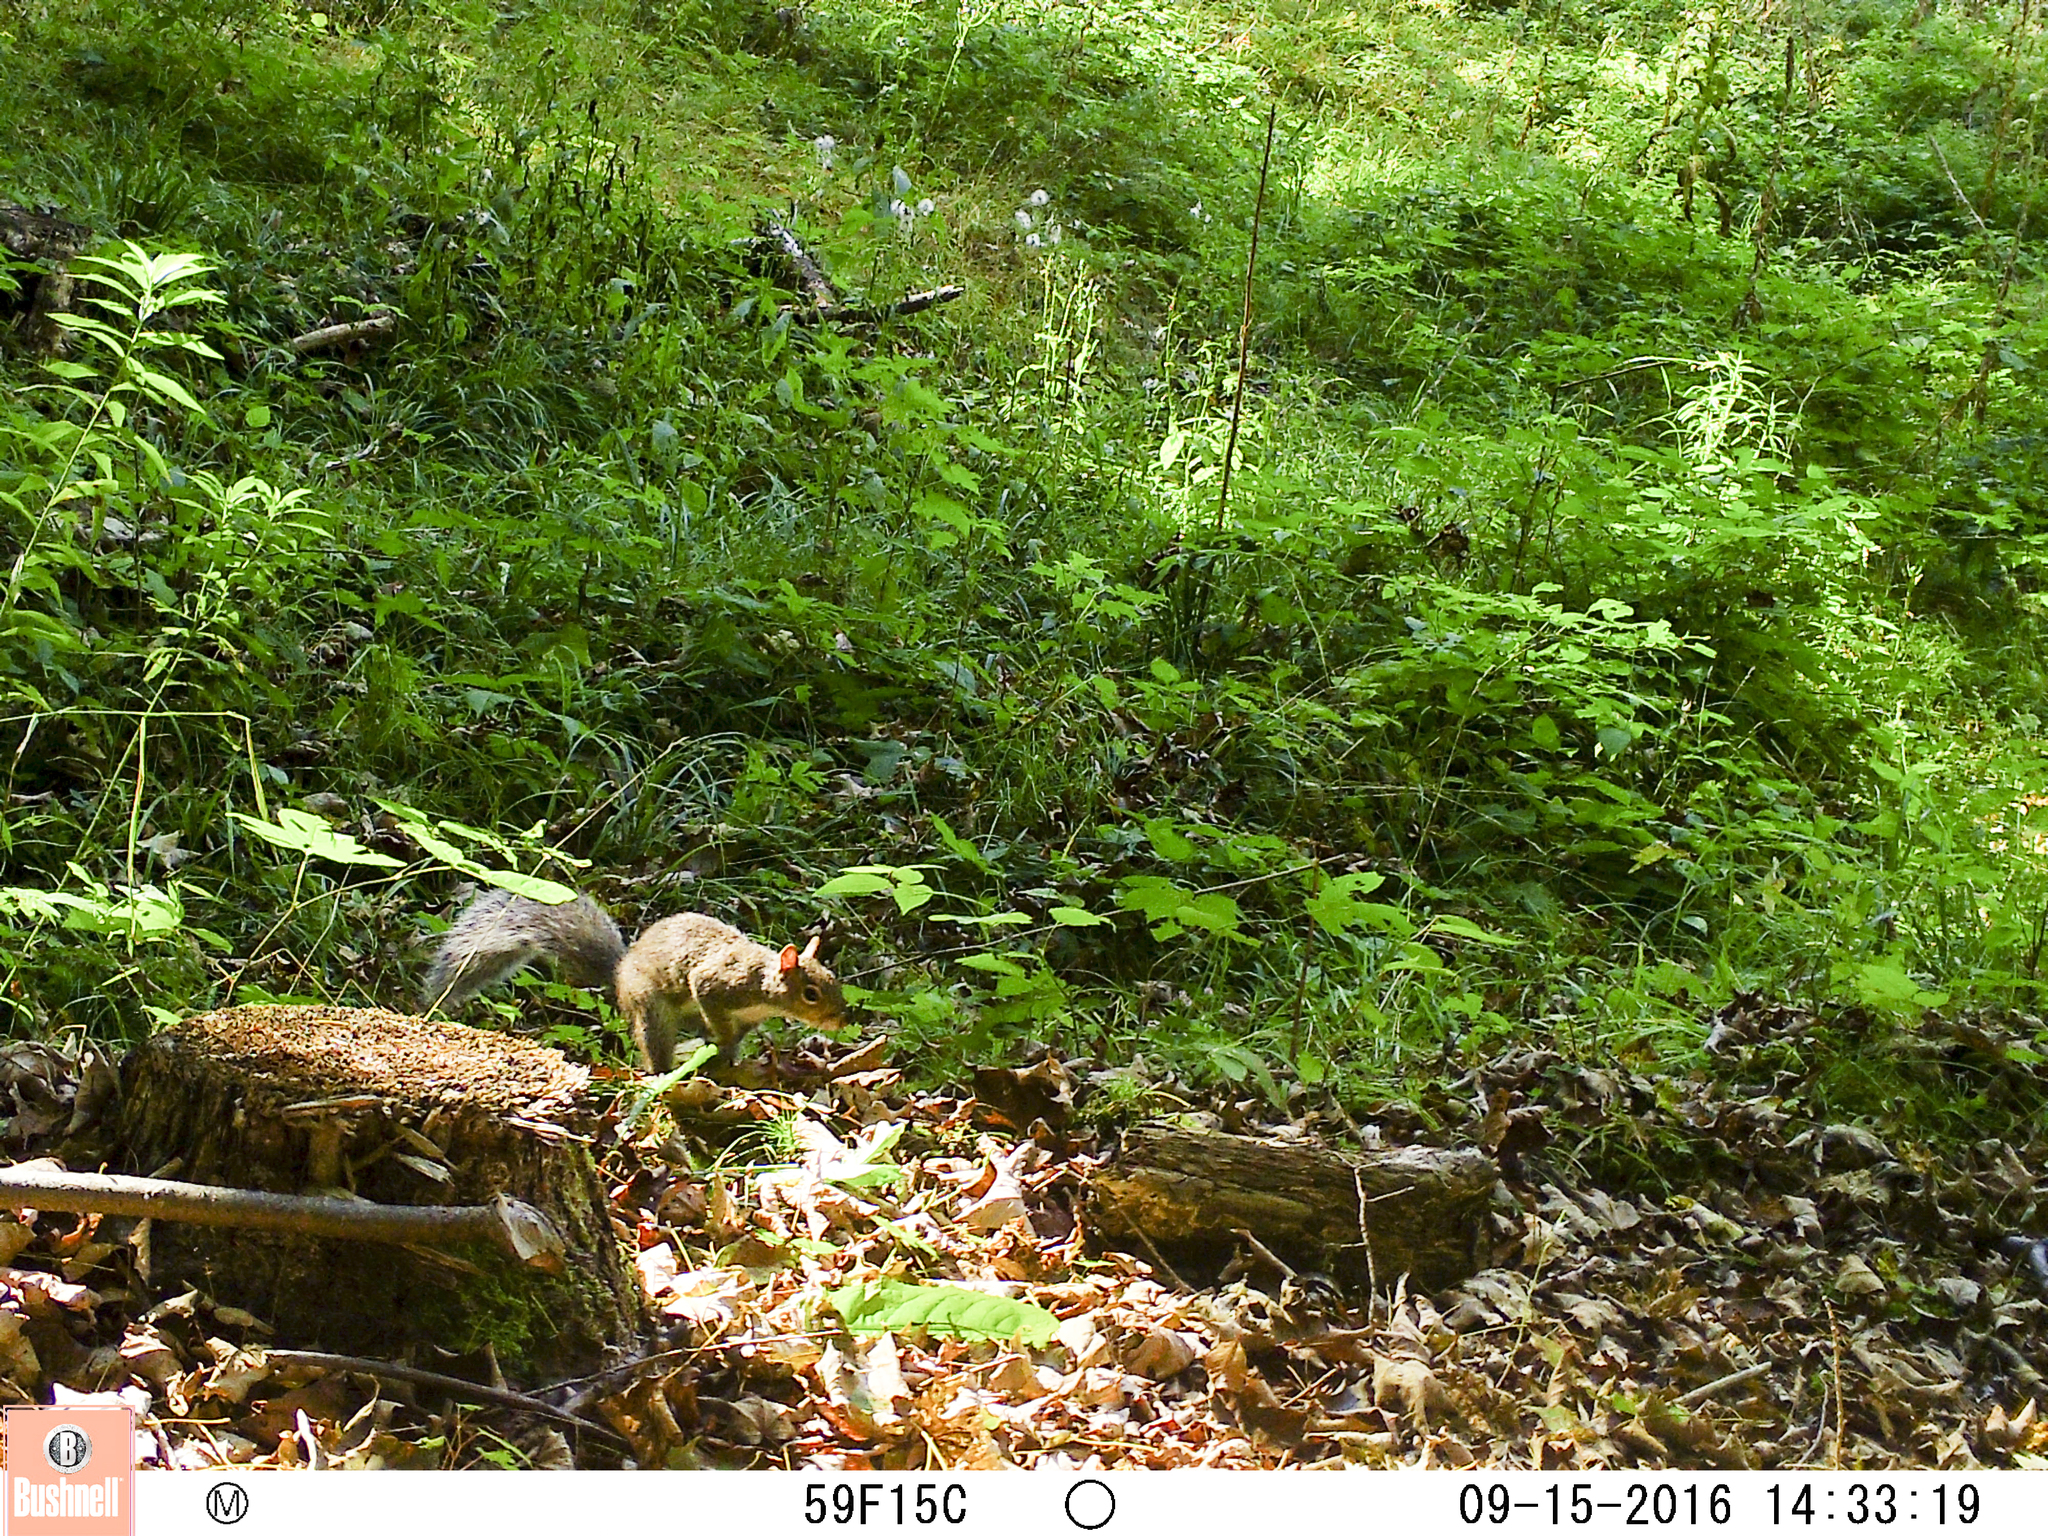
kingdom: Animalia
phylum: Chordata
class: Mammalia
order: Rodentia
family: Sciuridae
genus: Sciurus
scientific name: Sciurus carolinensis
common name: Eastern gray squirrel
